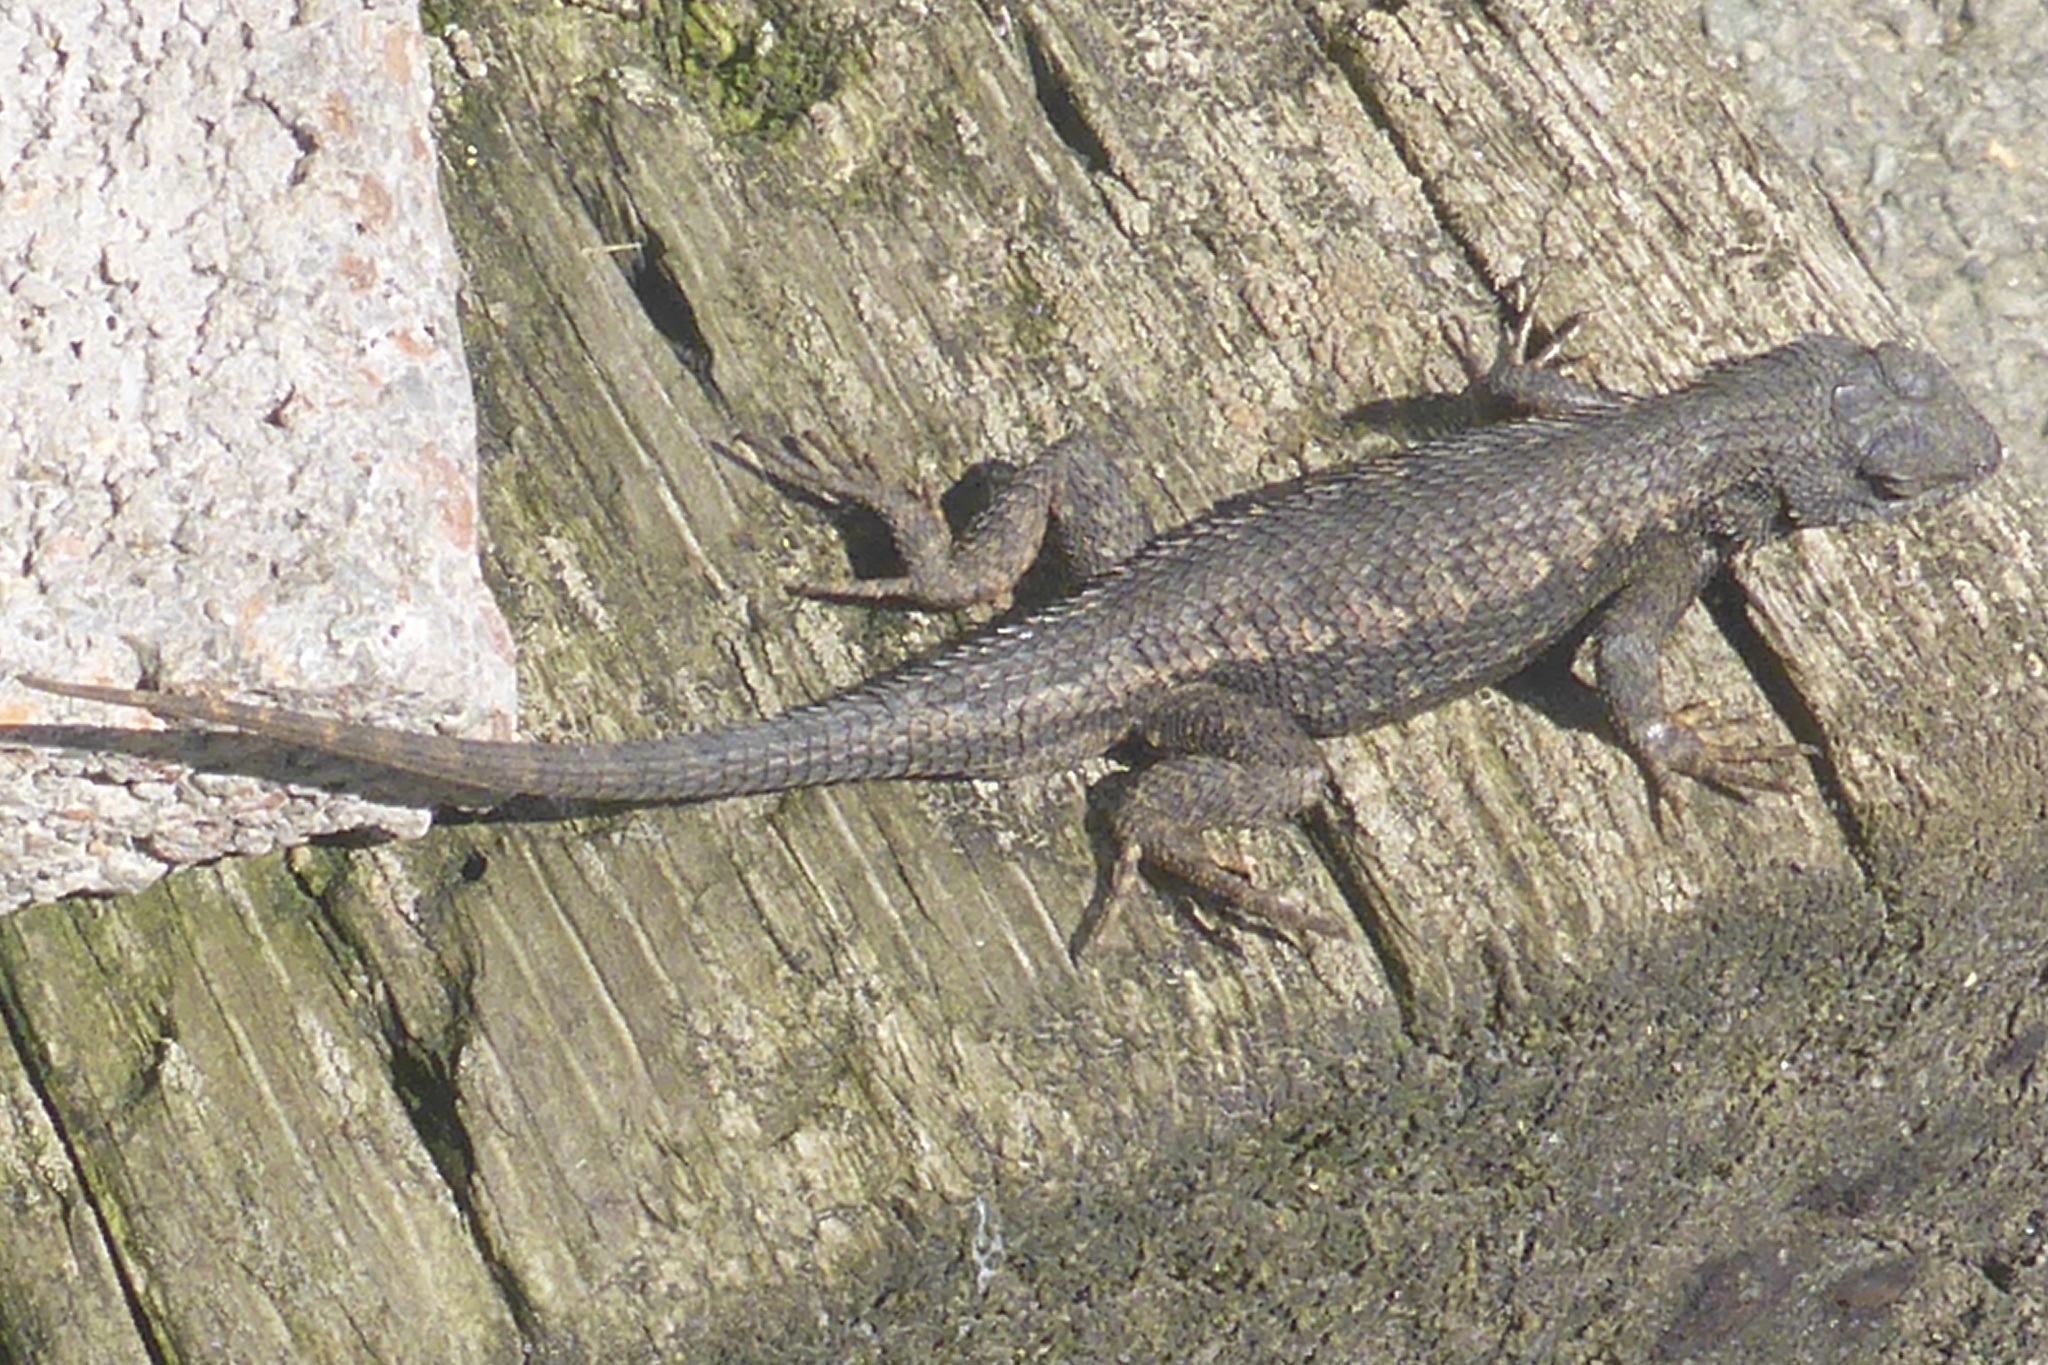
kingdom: Animalia
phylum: Chordata
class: Squamata
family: Phrynosomatidae
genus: Sceloporus
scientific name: Sceloporus occidentalis
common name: Western fence lizard
